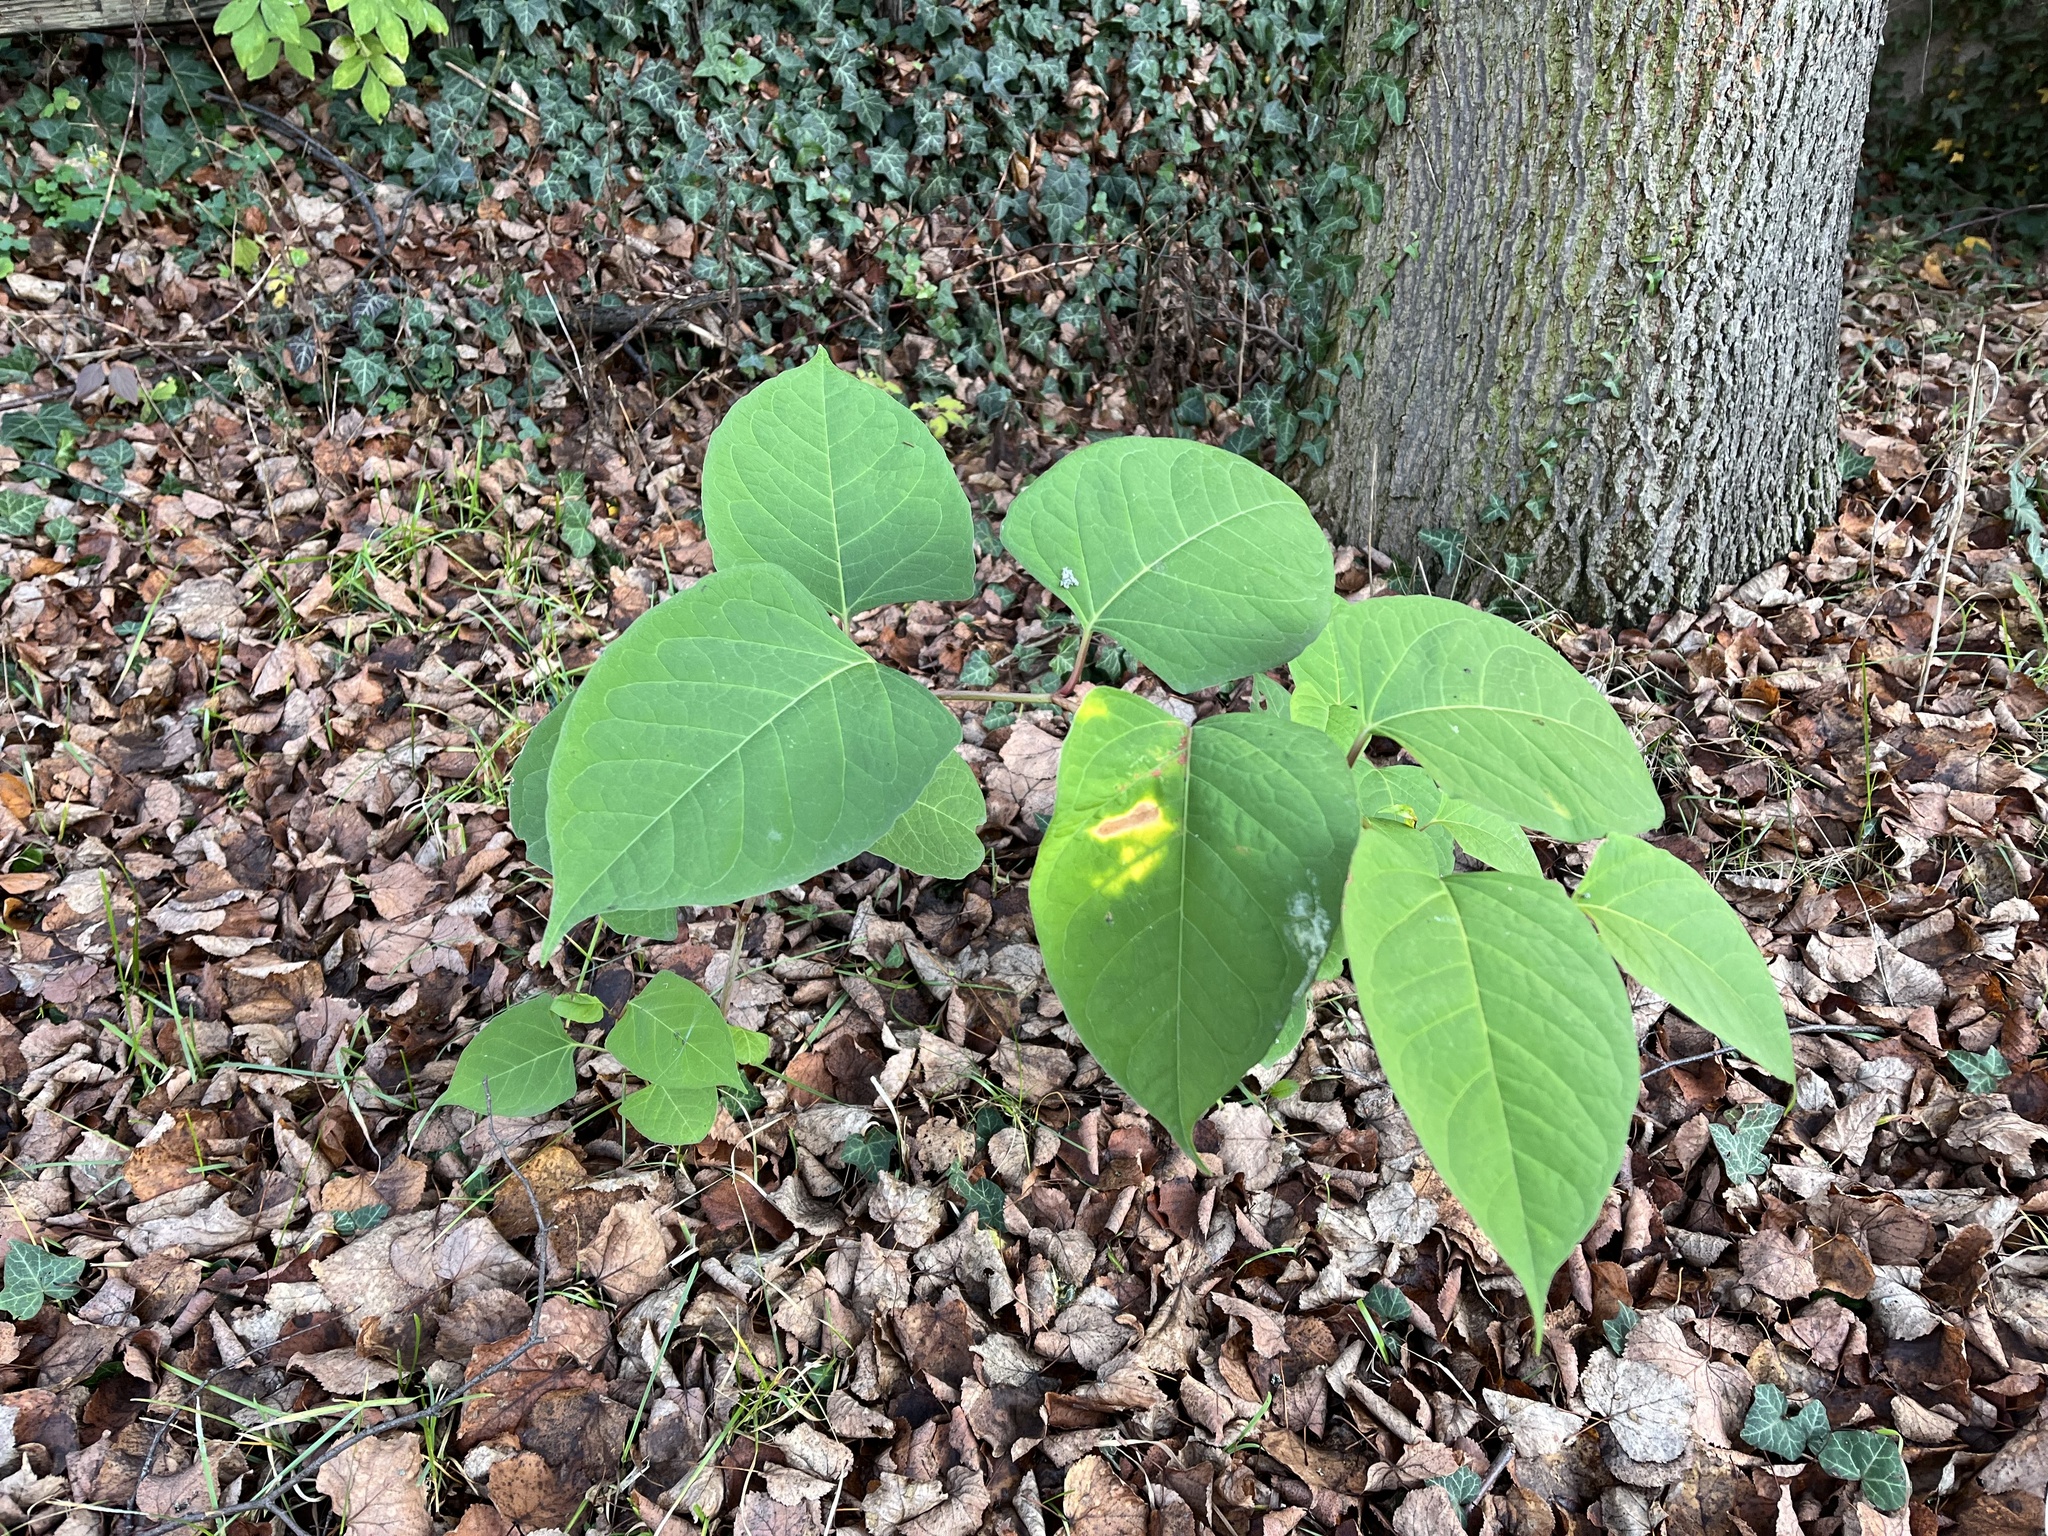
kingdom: Plantae
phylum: Tracheophyta
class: Magnoliopsida
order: Caryophyllales
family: Polygonaceae
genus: Reynoutria
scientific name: Reynoutria japonica
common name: Japanese knotweed
